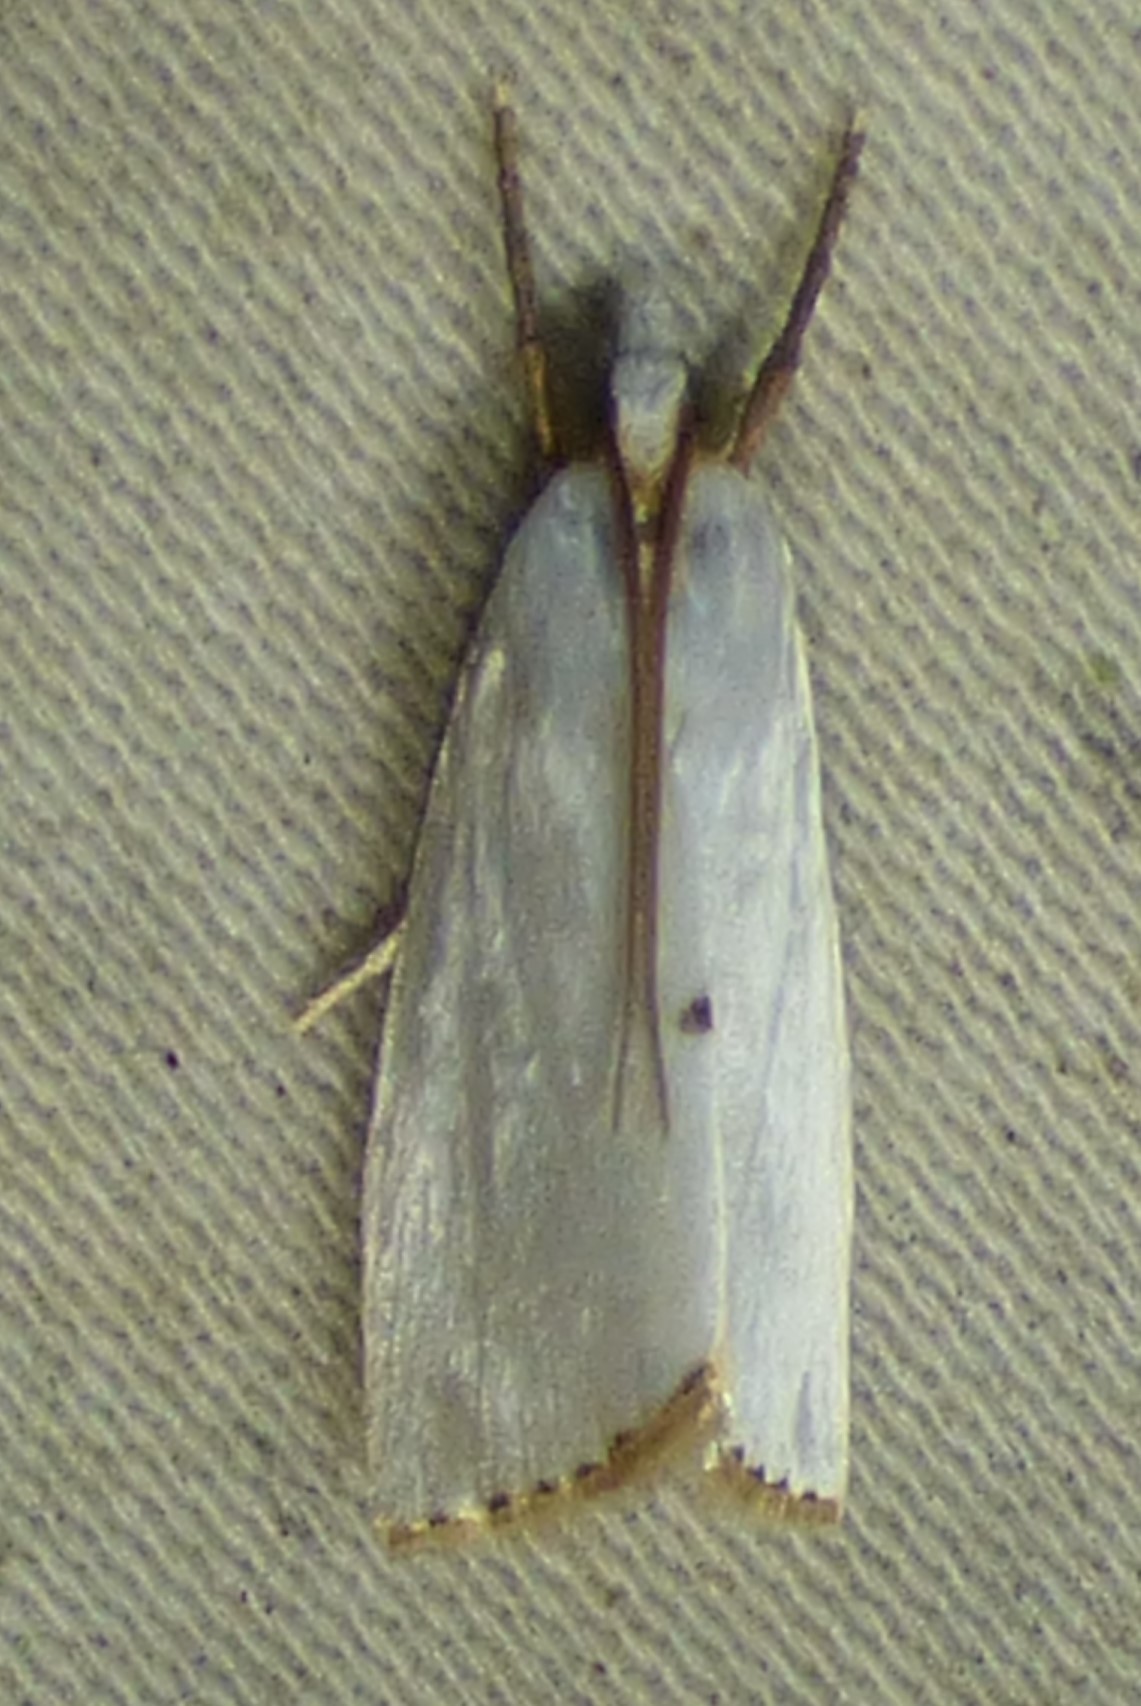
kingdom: Animalia
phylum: Arthropoda
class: Insecta
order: Lepidoptera
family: Crambidae
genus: Argyria
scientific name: Argyria nivalis
